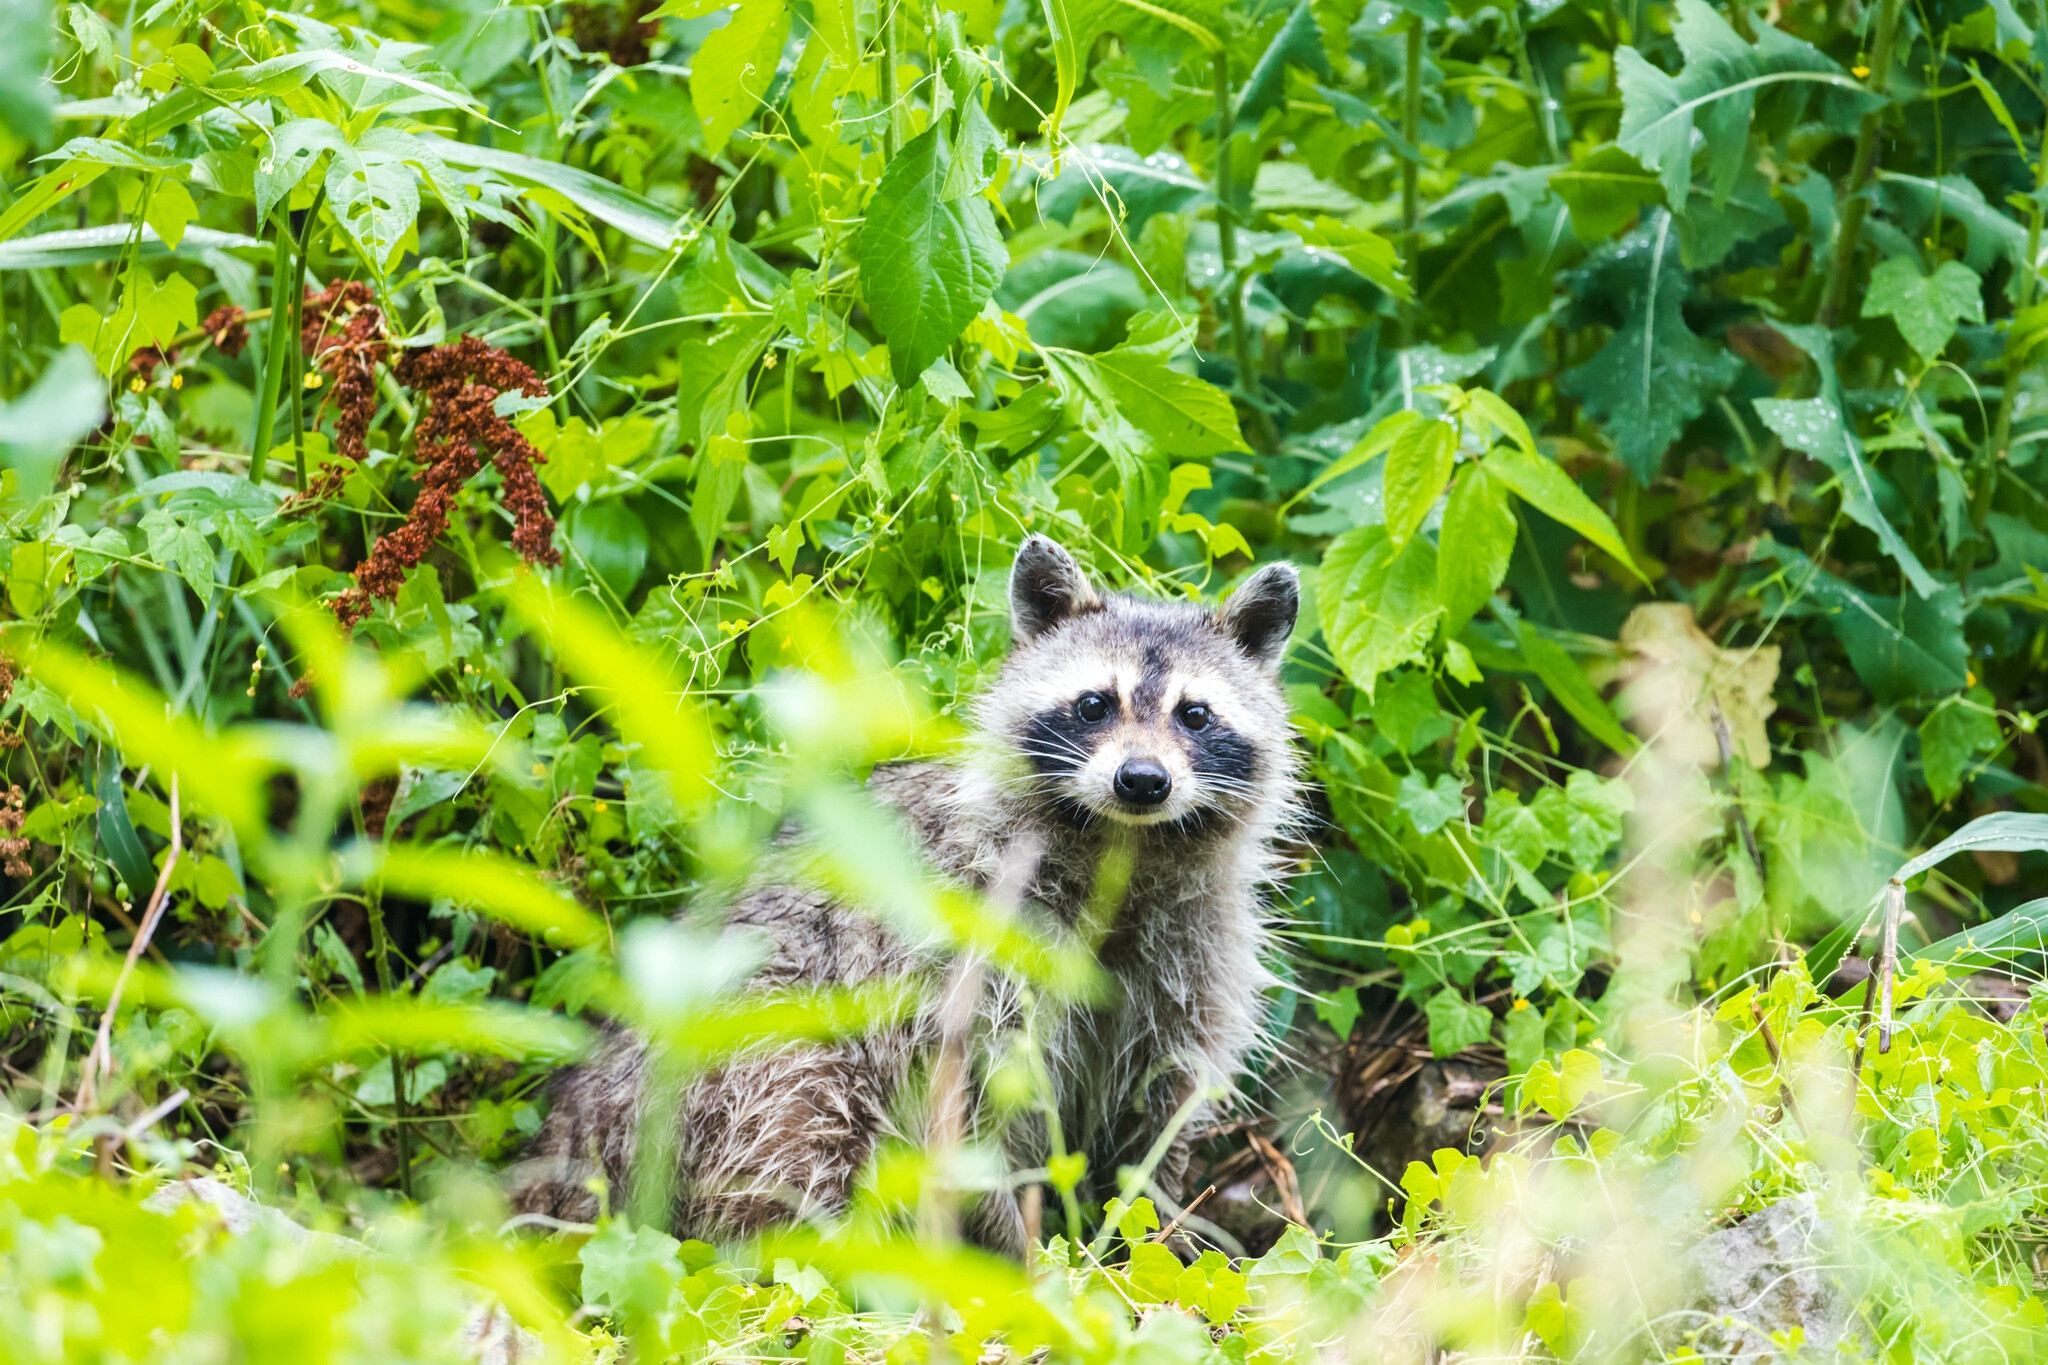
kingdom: Animalia
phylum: Chordata
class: Mammalia
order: Carnivora
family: Procyonidae
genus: Procyon
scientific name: Procyon lotor
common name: Raccoon
